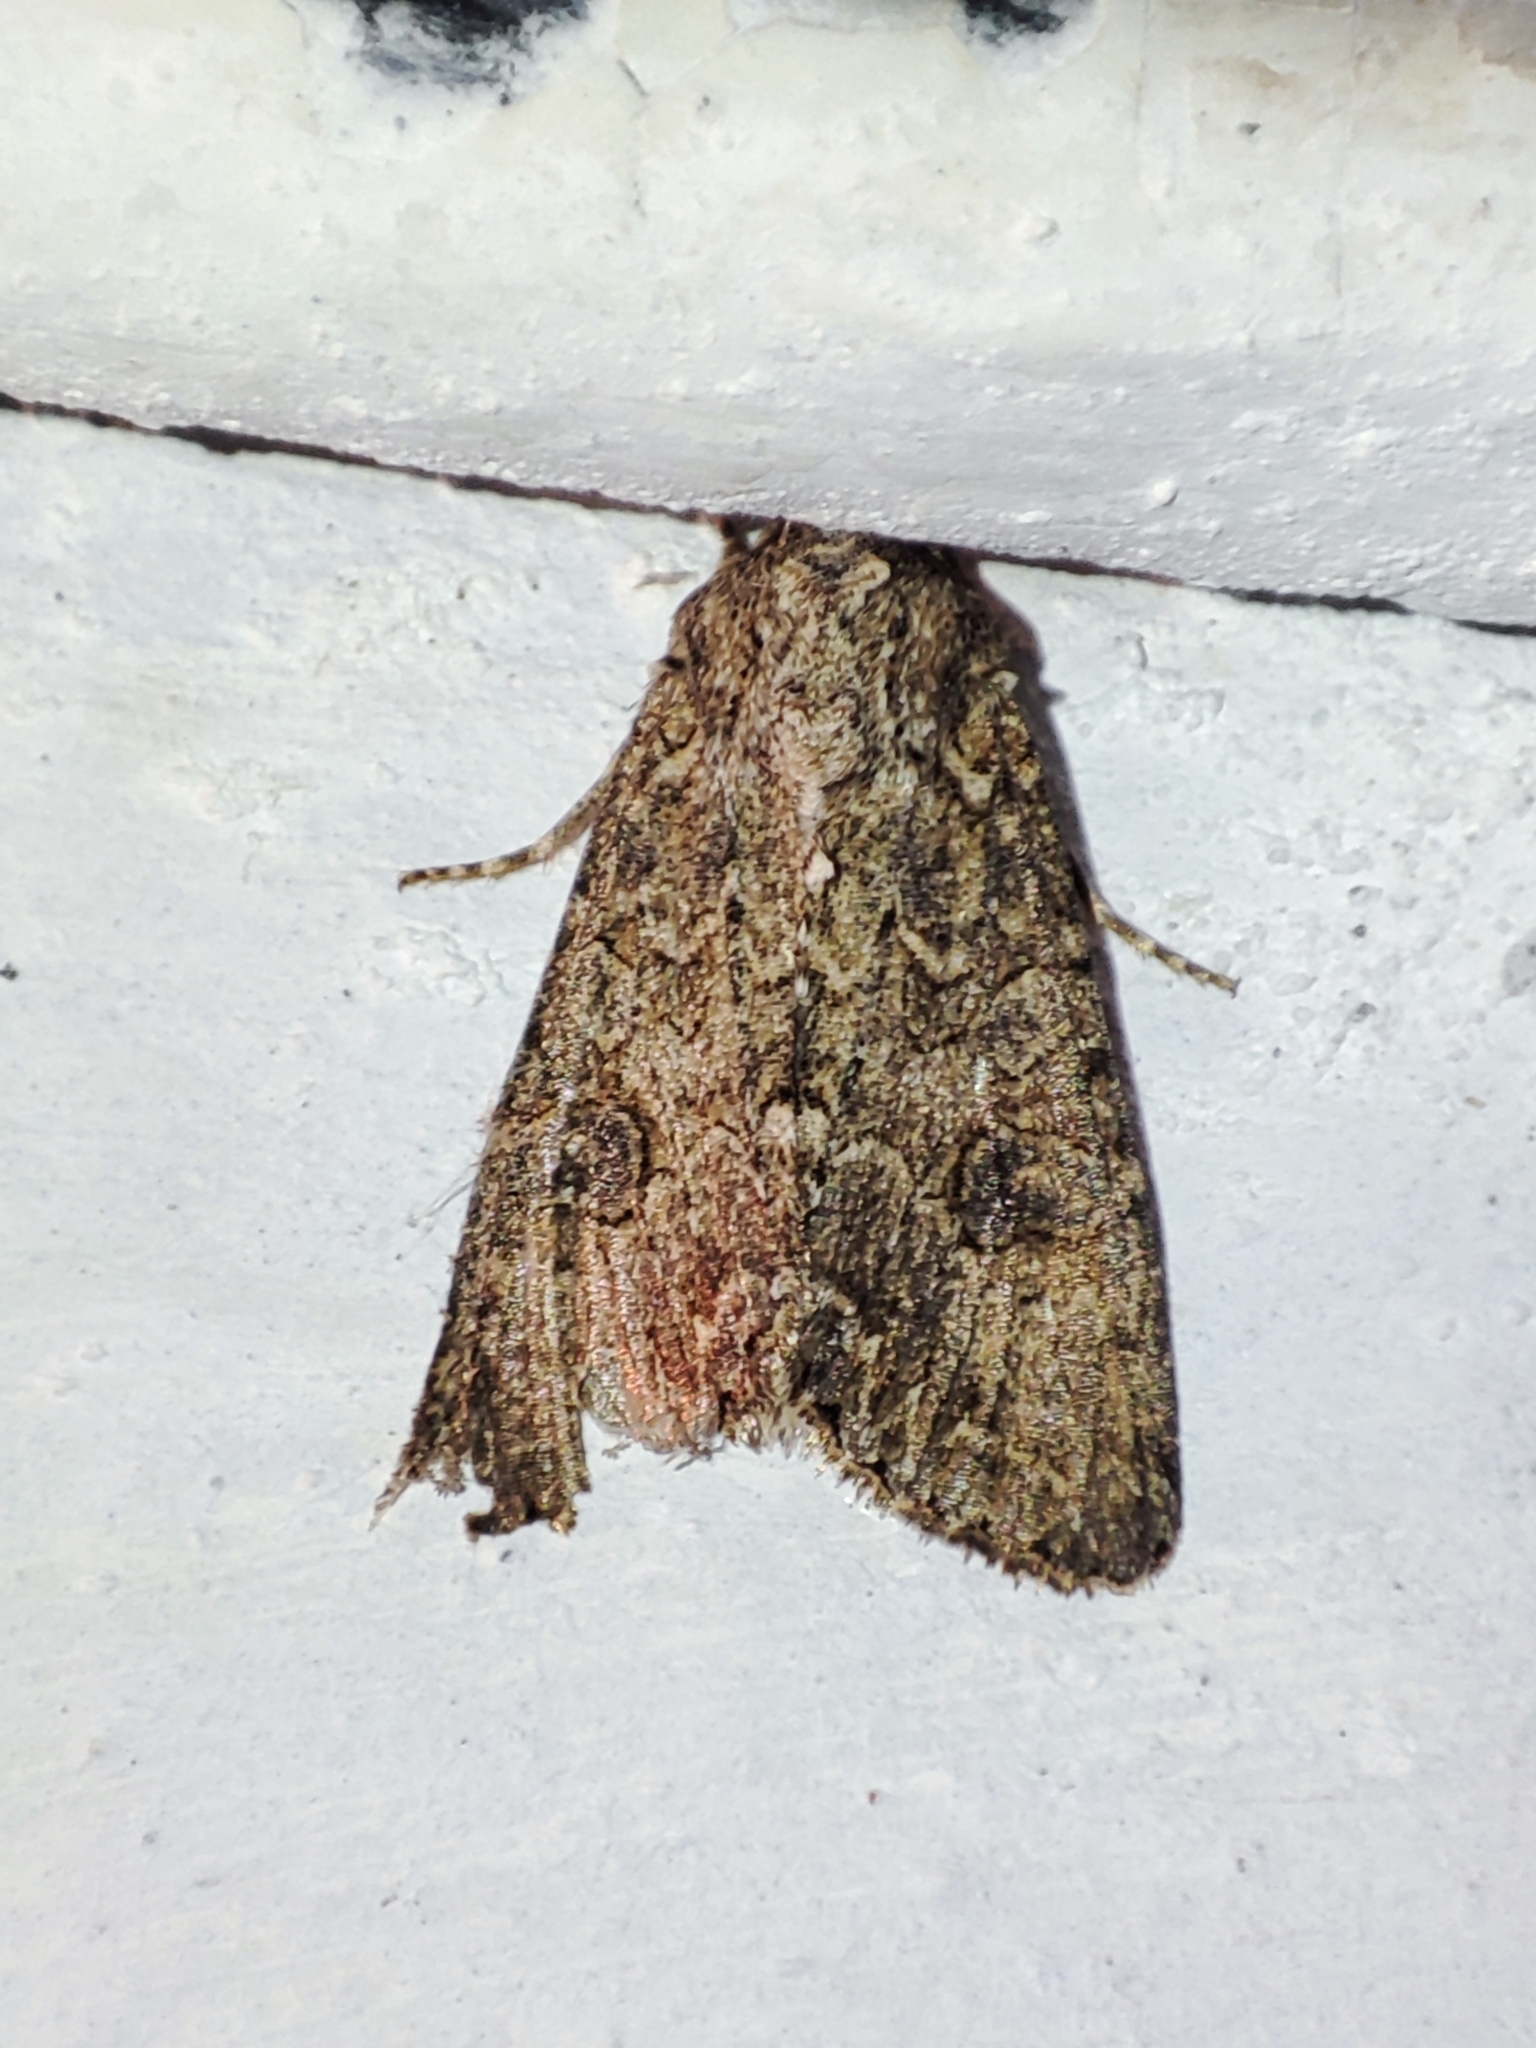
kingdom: Animalia
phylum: Arthropoda
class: Insecta
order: Lepidoptera
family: Noctuidae
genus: Anarta
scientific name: Anarta trifolii
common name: Clover cutworm moth
